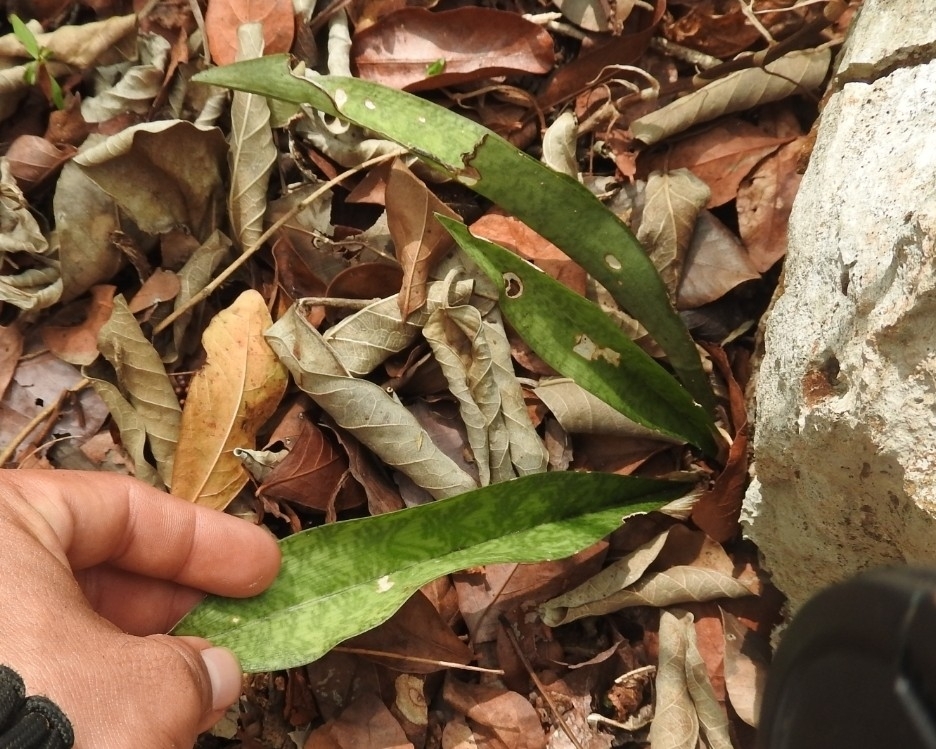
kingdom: Plantae
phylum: Tracheophyta
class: Liliopsida
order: Asparagales
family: Asparagaceae
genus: Dracaena
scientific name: Dracaena hyacinthoides
